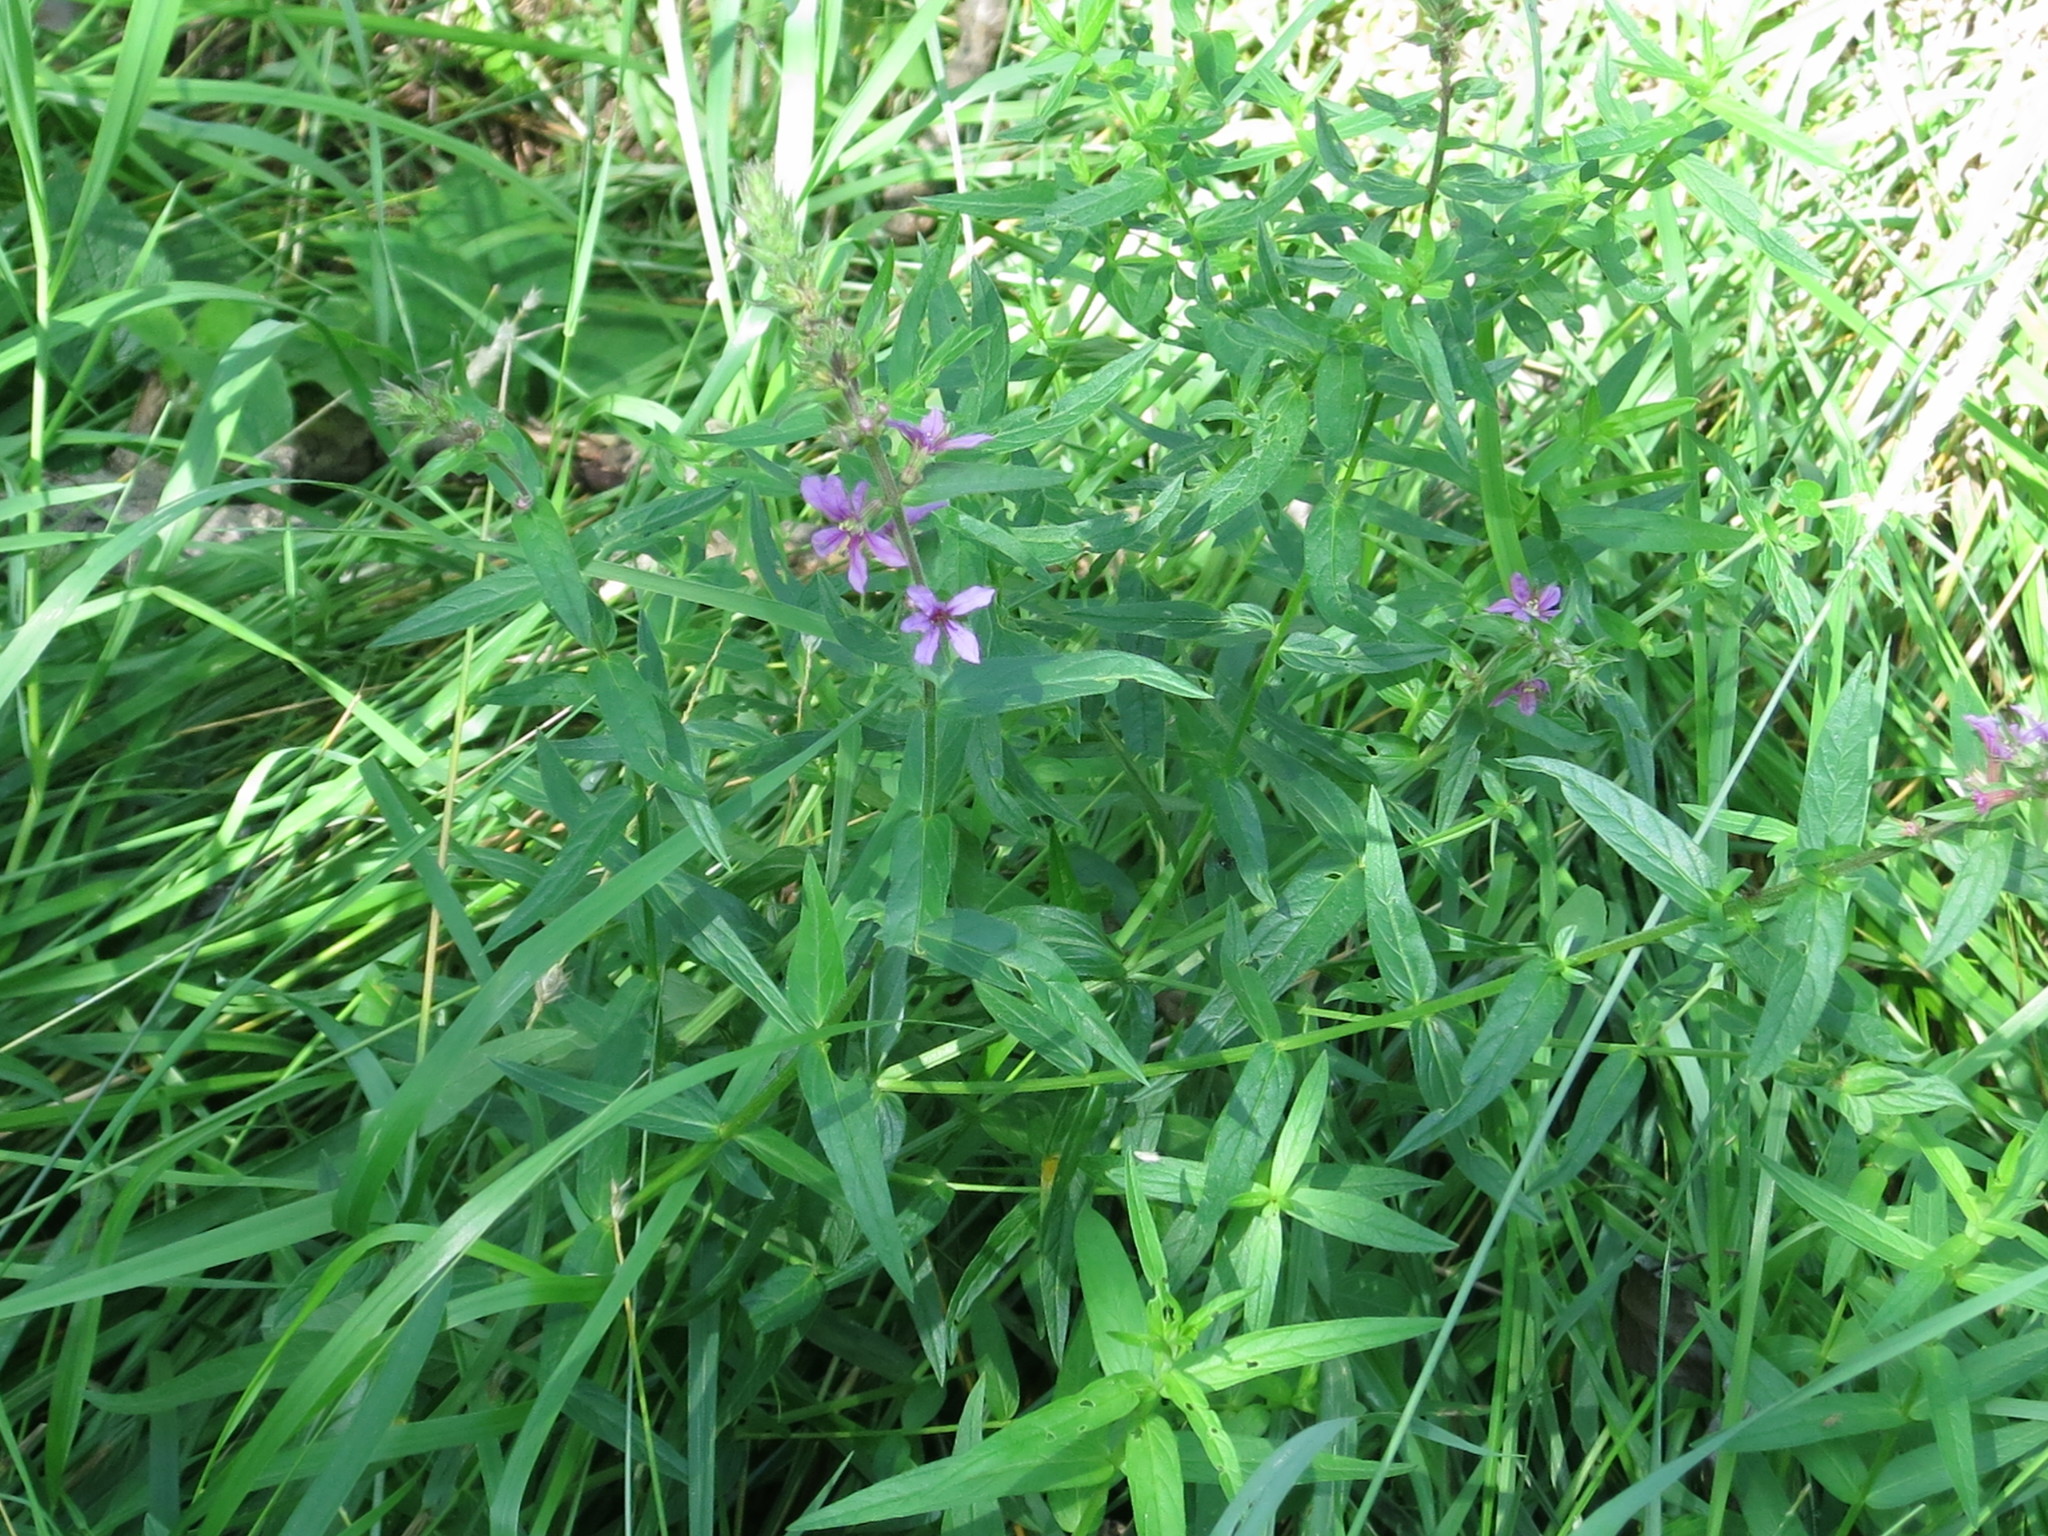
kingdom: Plantae
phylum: Tracheophyta
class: Magnoliopsida
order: Myrtales
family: Lythraceae
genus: Lythrum
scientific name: Lythrum salicaria
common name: Purple loosestrife
